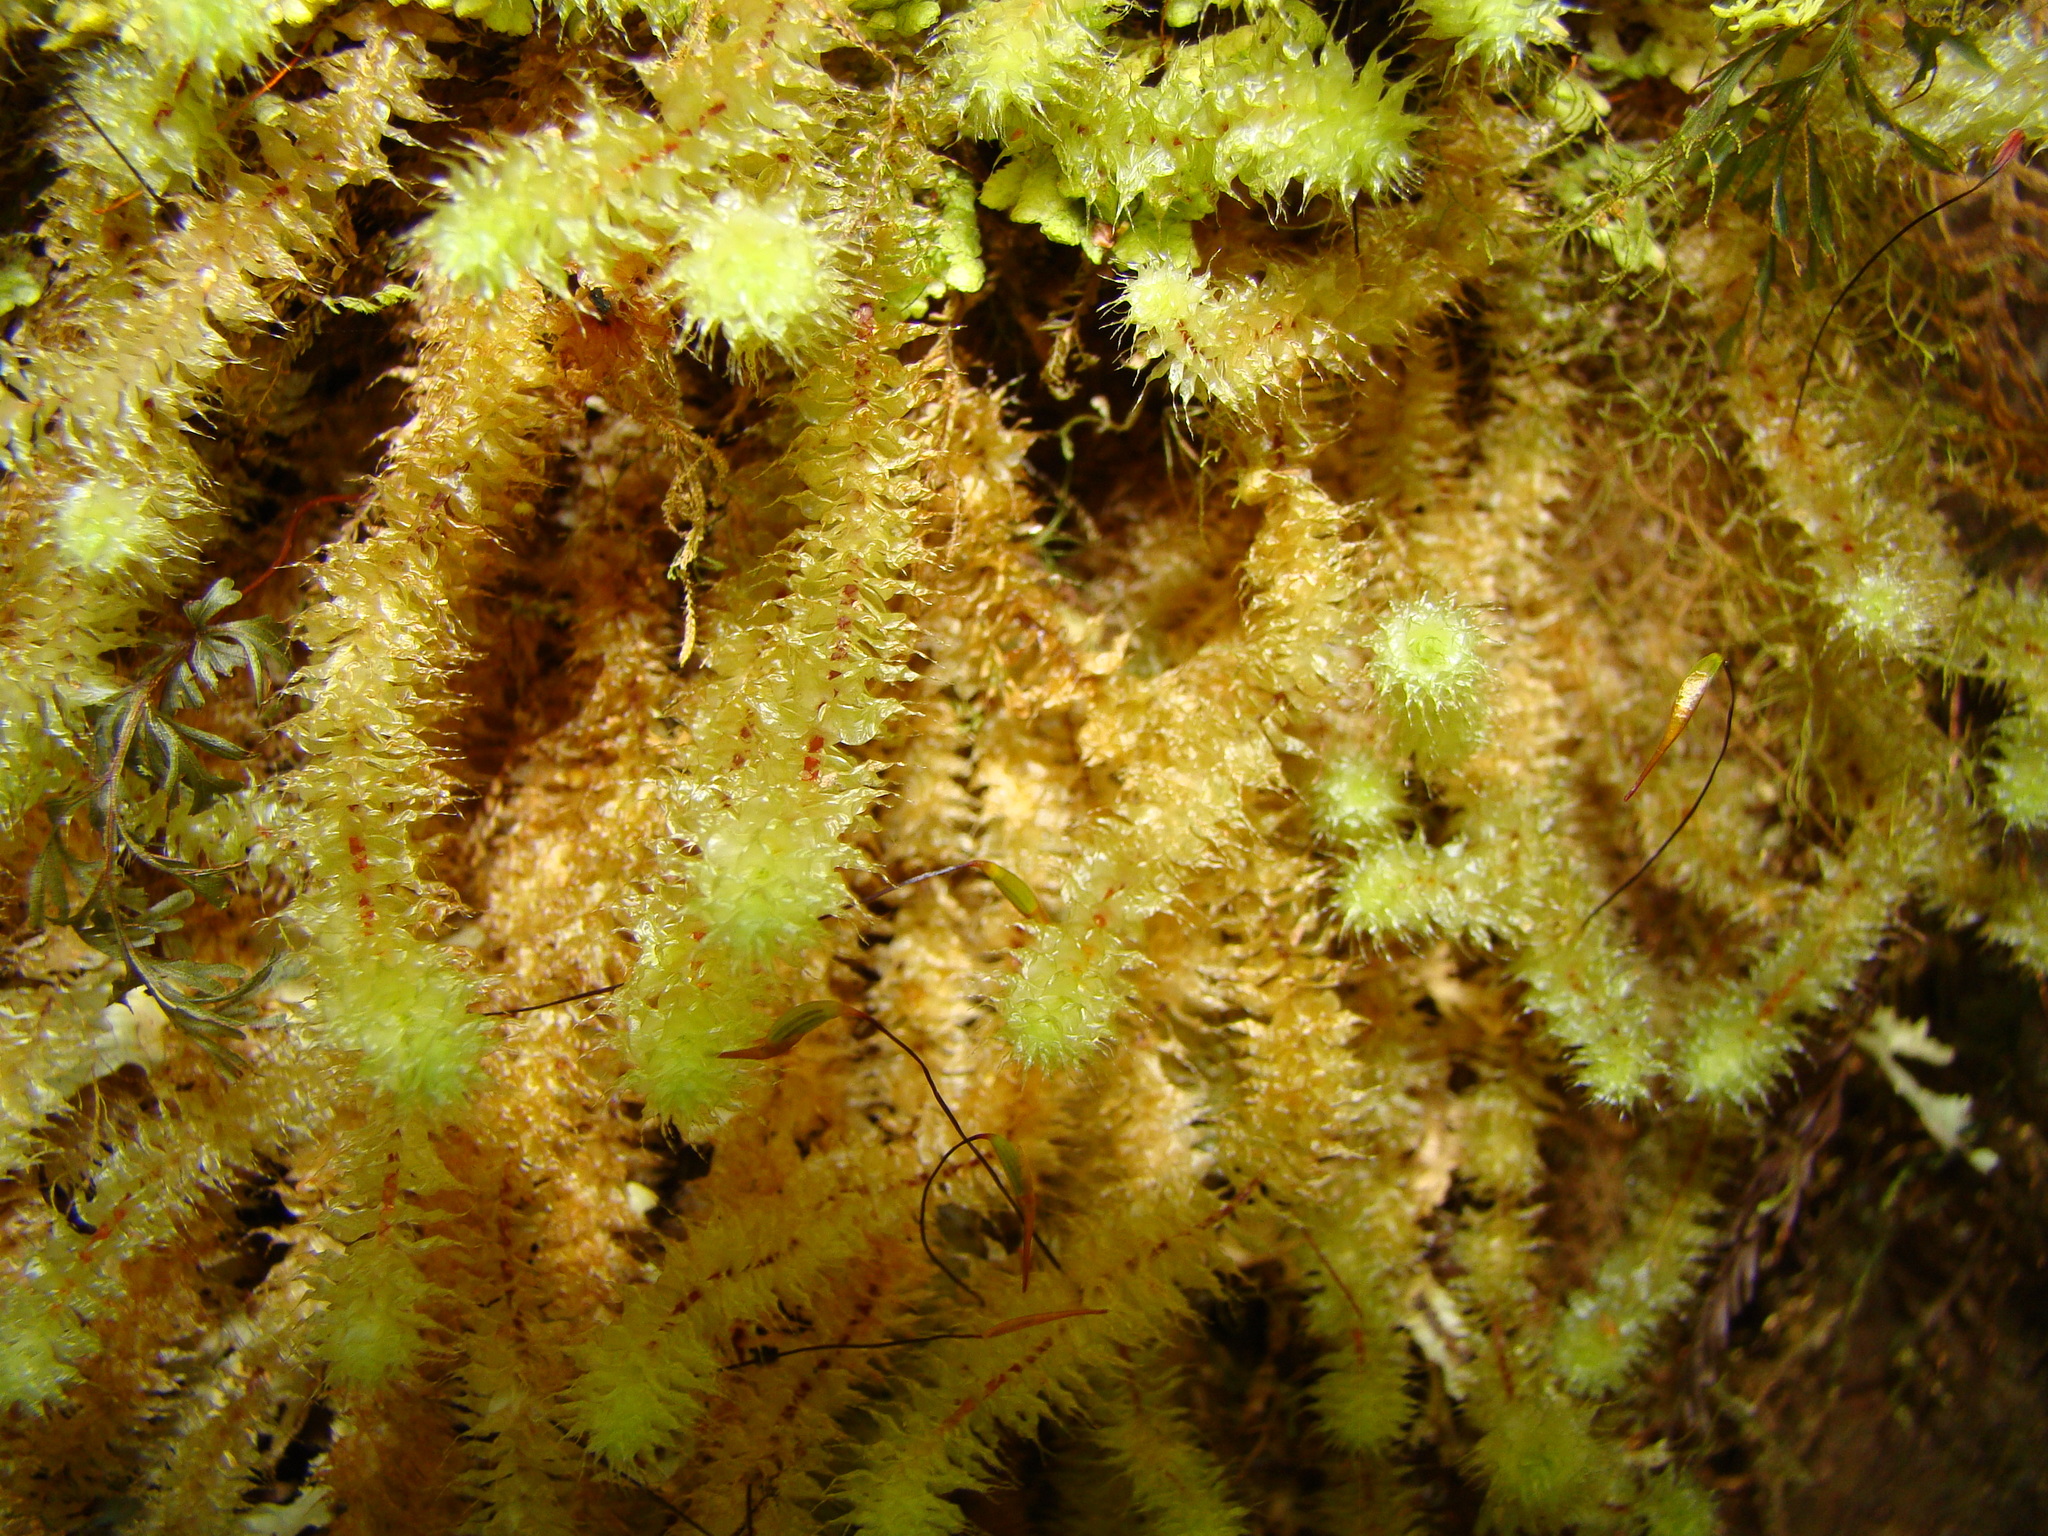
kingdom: Plantae
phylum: Bryophyta
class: Bryopsida
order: Ptychomniales
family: Ptychomniaceae
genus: Ptychomnion
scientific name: Ptychomnion aciculare
